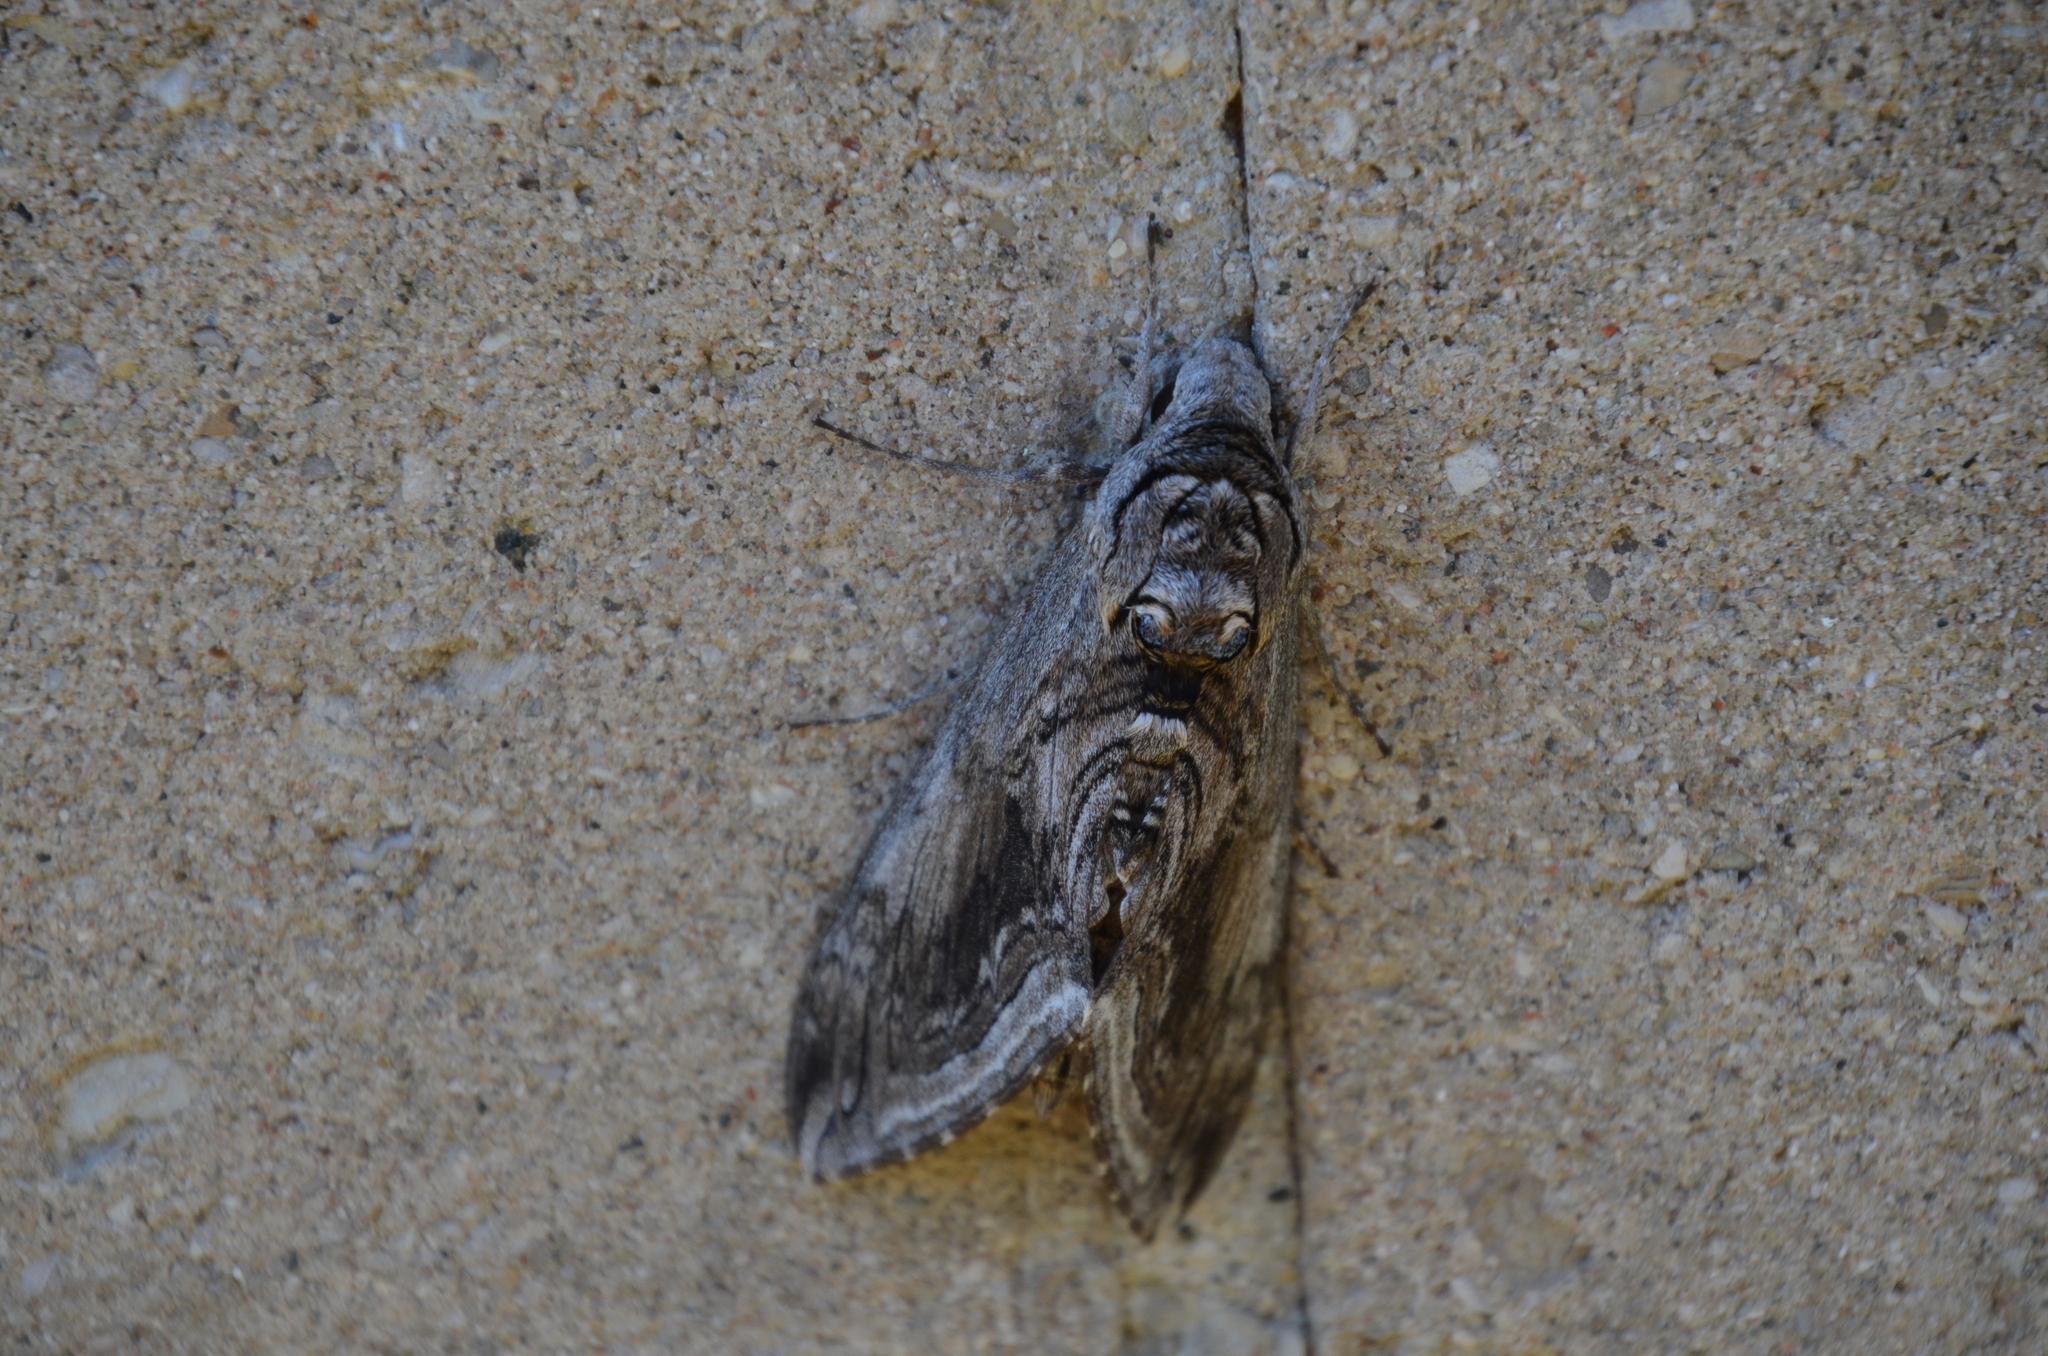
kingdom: Animalia
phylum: Arthropoda
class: Insecta
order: Lepidoptera
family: Sphingidae
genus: Manduca
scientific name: Manduca quinquemaculatus
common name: Five-spotted hawk-moth
